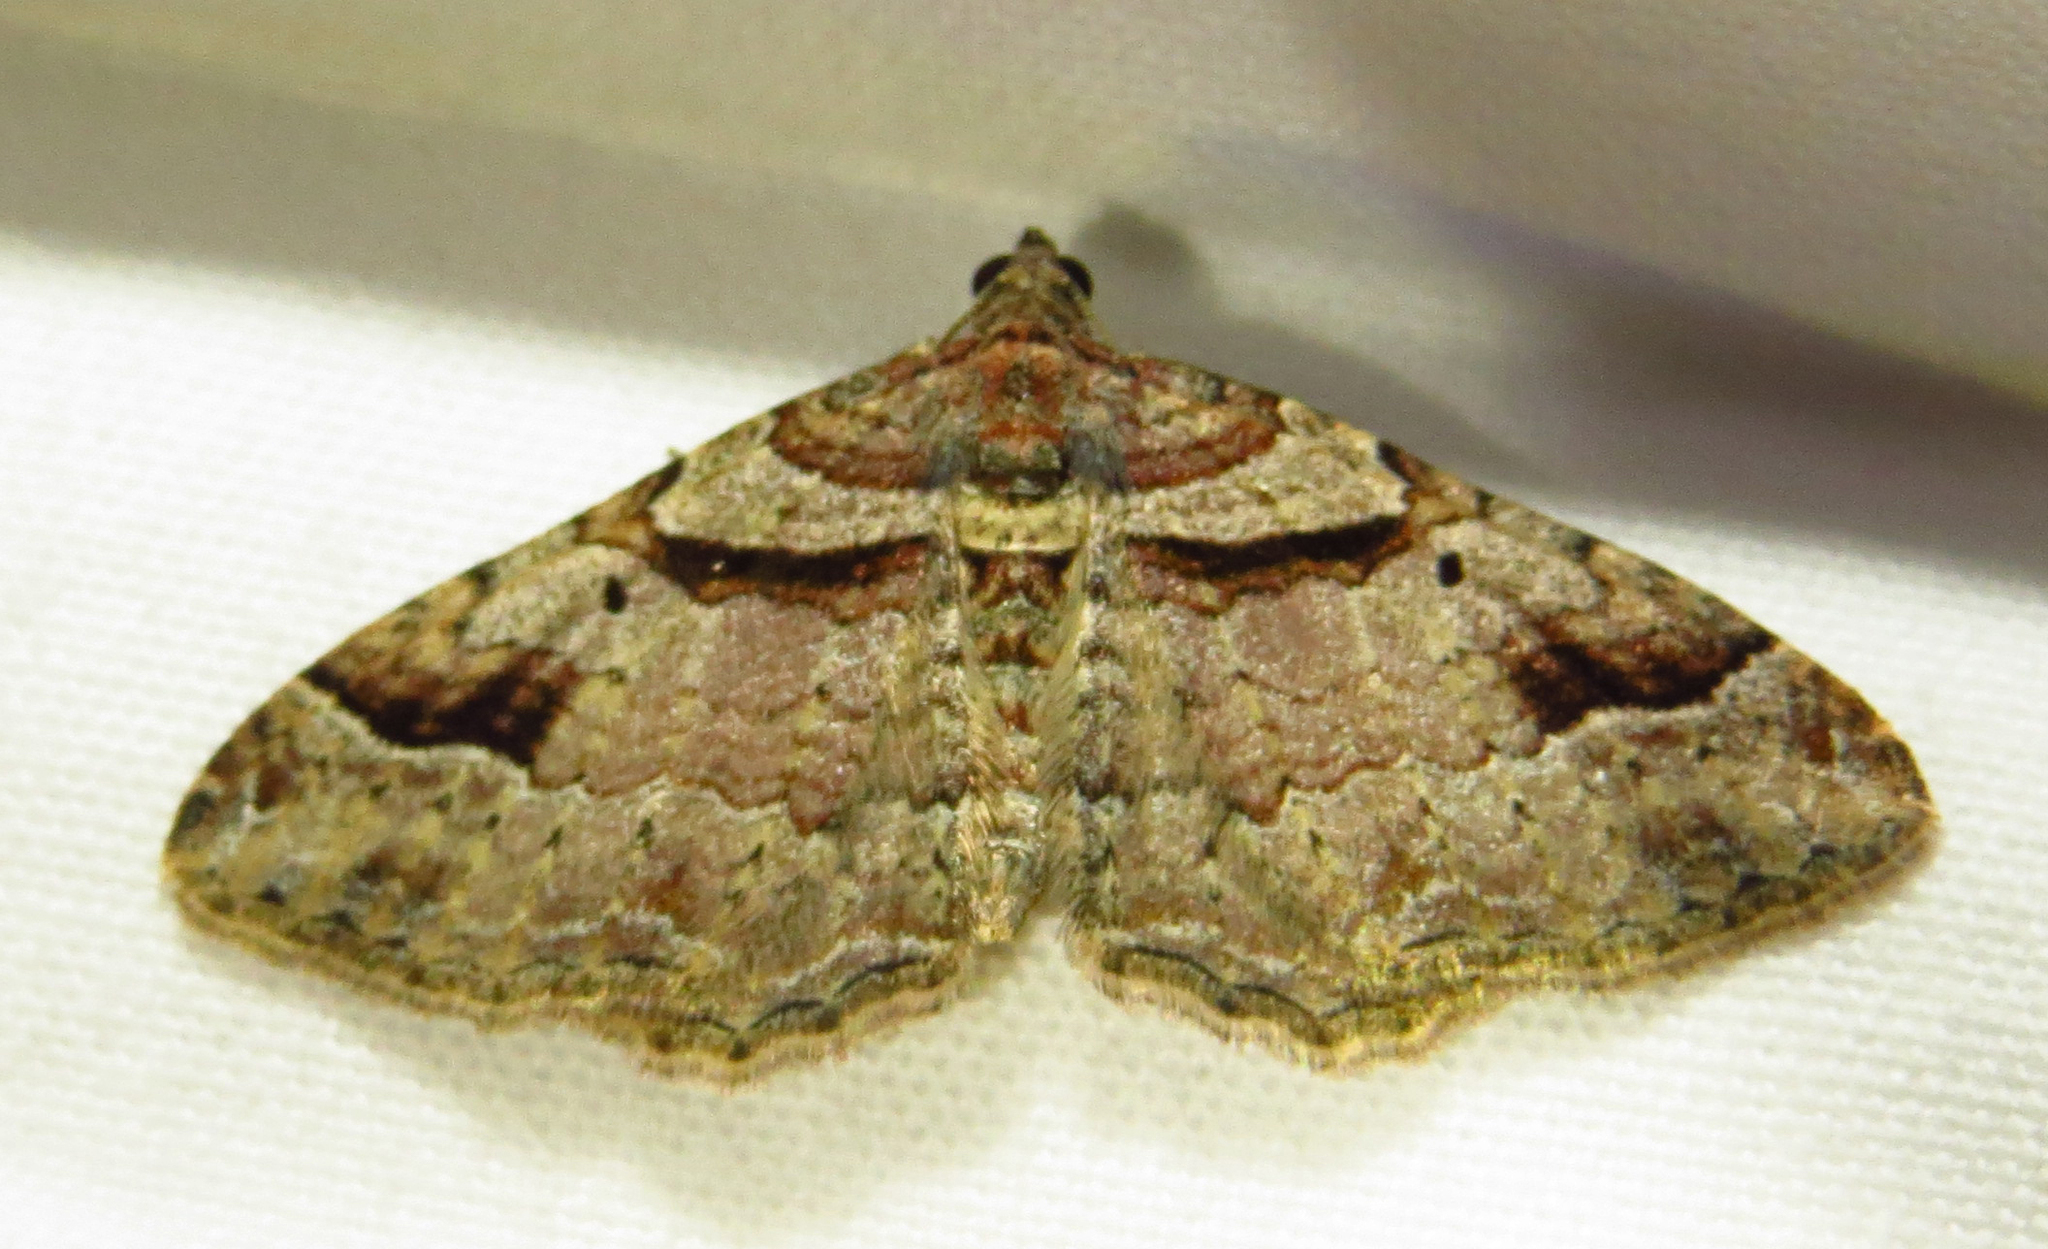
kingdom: Animalia
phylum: Arthropoda
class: Insecta
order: Lepidoptera
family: Geometridae
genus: Costaconvexa
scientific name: Costaconvexa centrostrigaria
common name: Bent-line carpet
